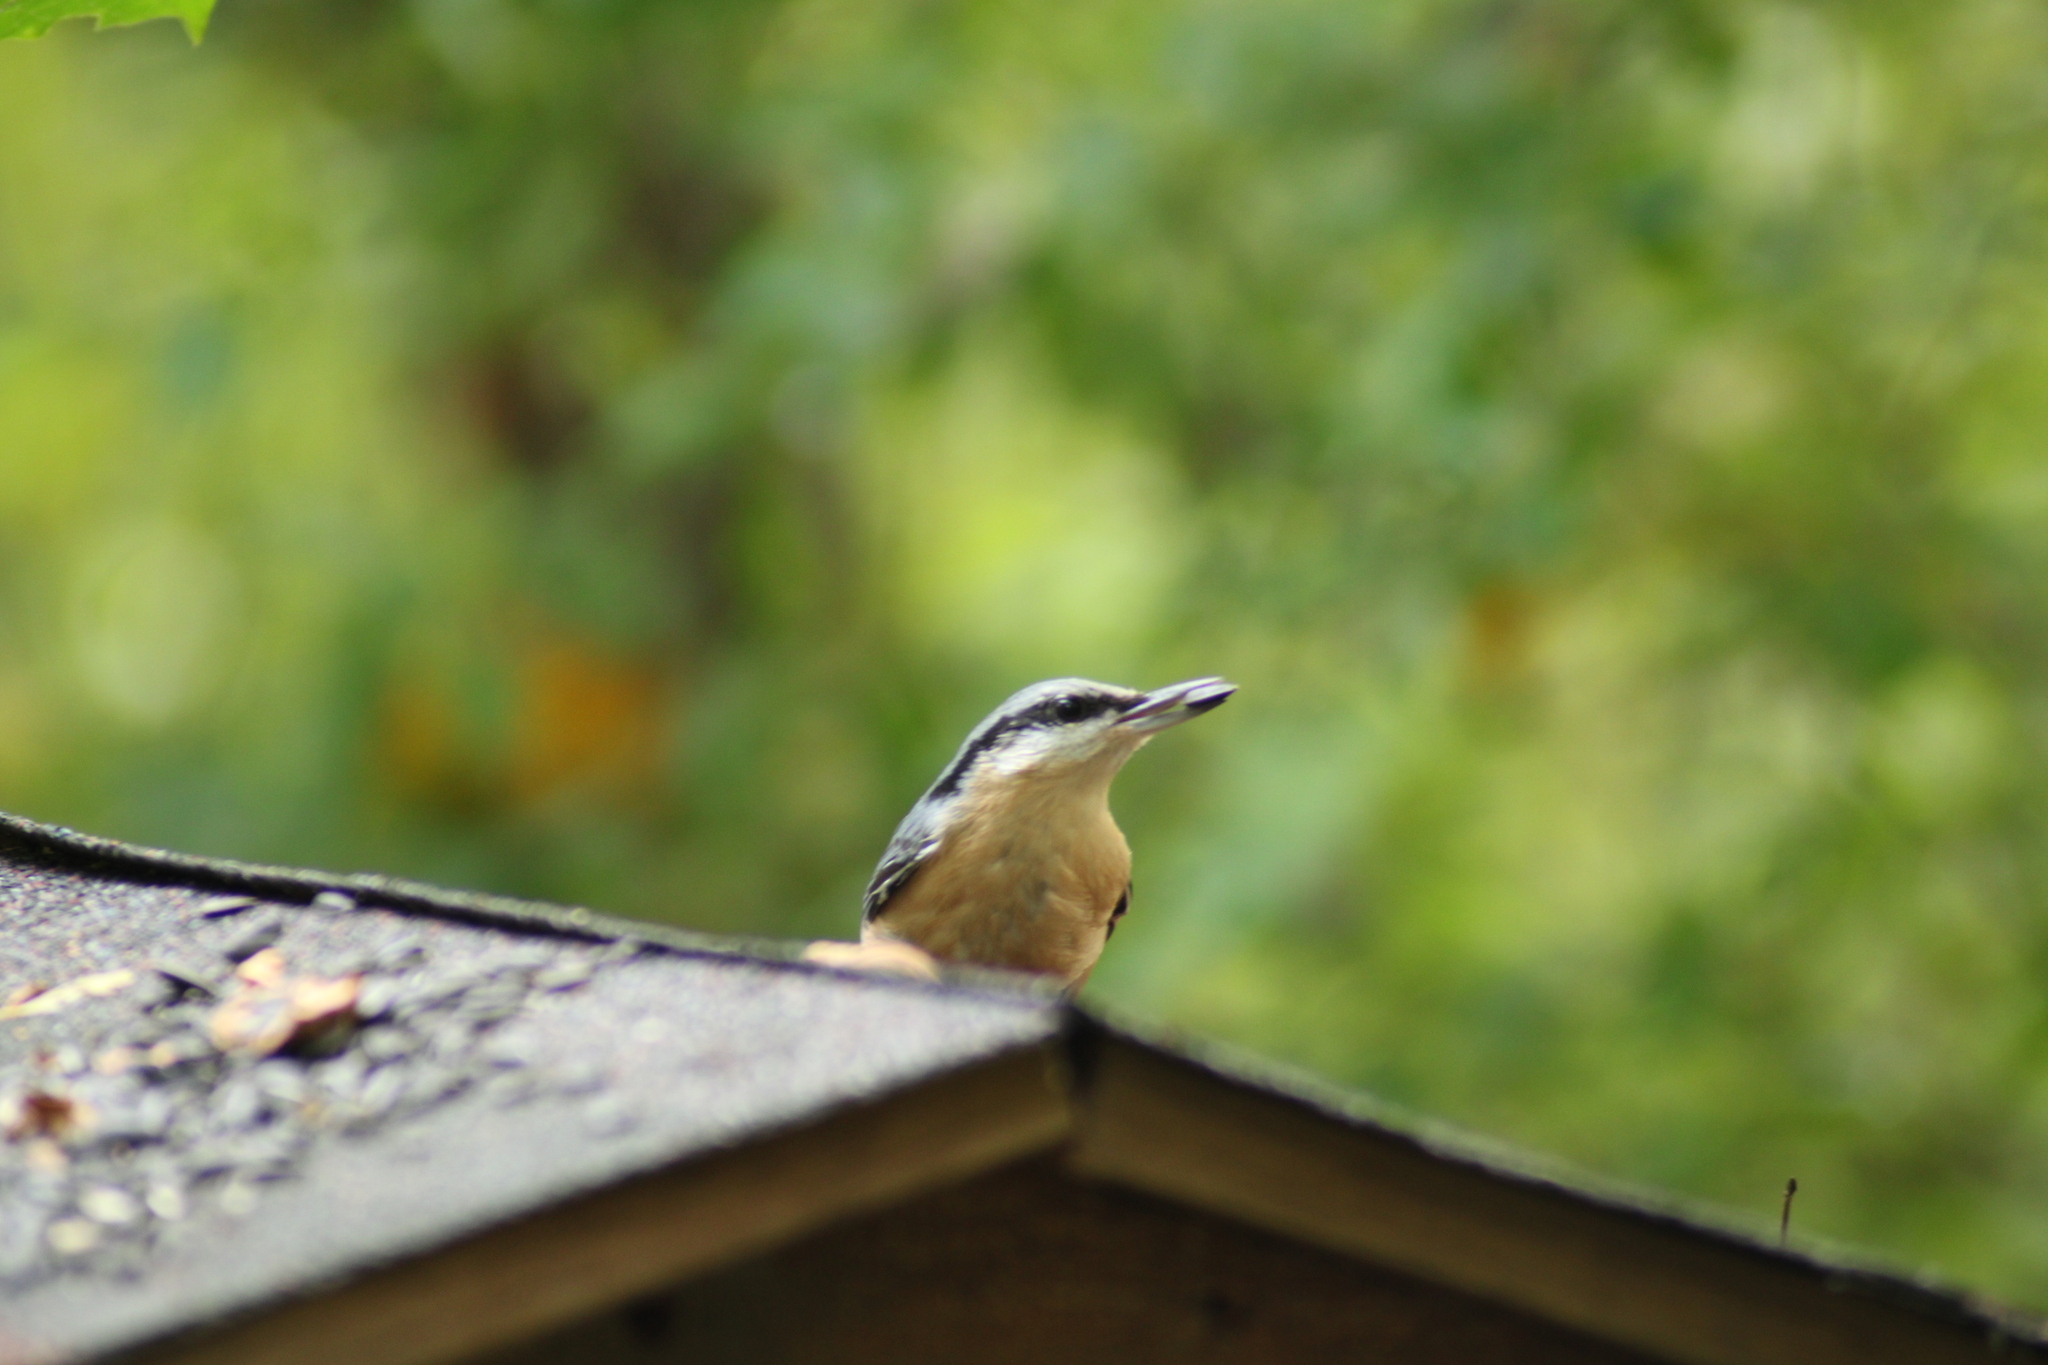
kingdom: Animalia
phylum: Chordata
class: Aves
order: Passeriformes
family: Sittidae
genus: Sitta
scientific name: Sitta europaea
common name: Eurasian nuthatch
